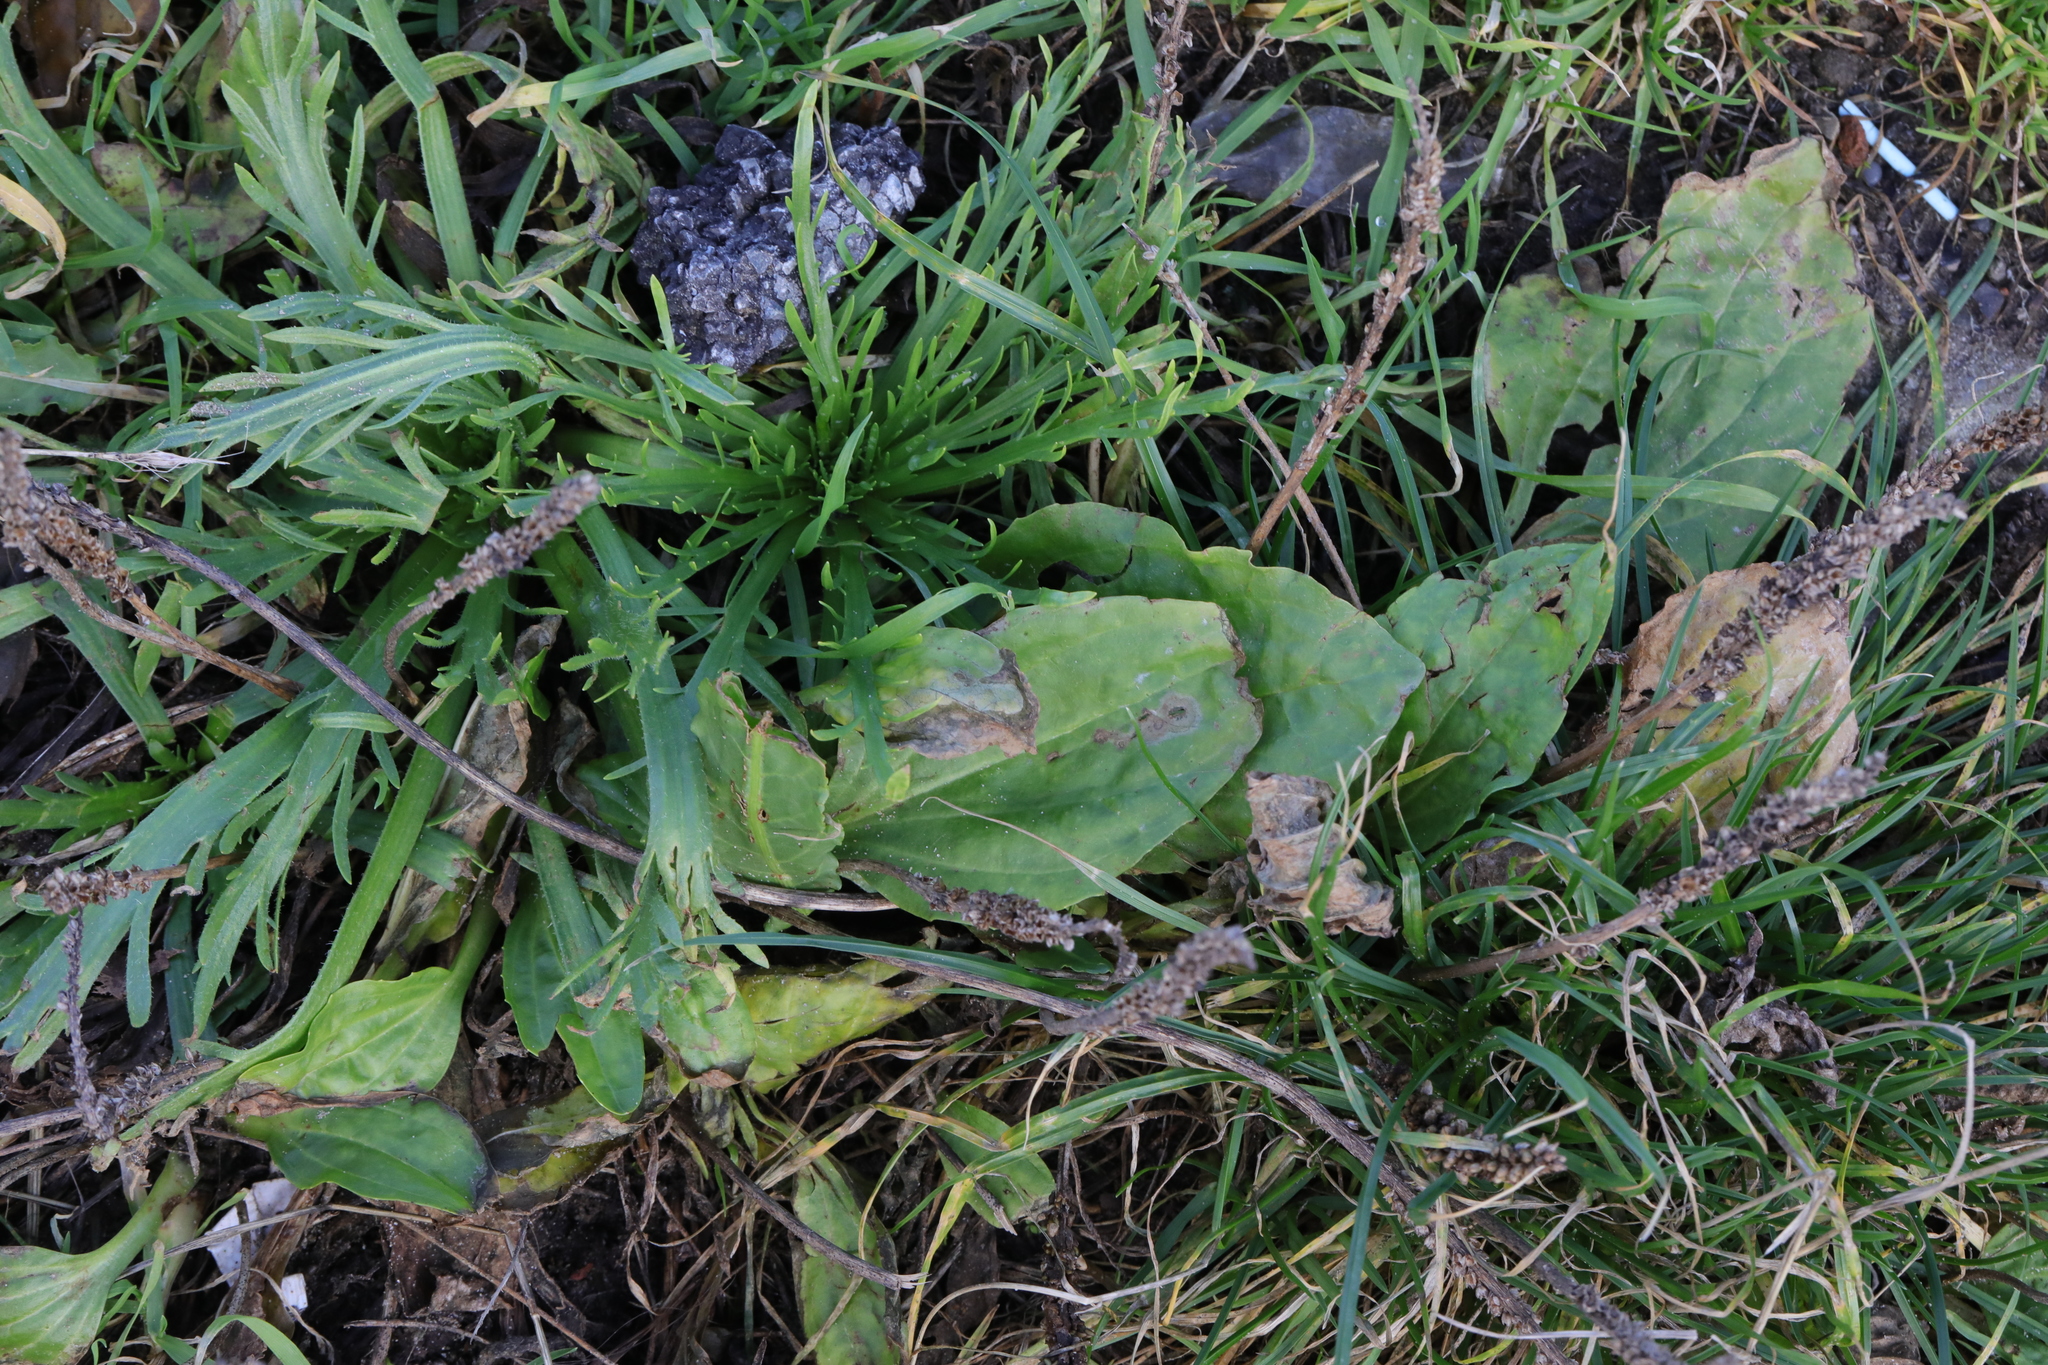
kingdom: Plantae
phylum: Tracheophyta
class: Magnoliopsida
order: Lamiales
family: Plantaginaceae
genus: Plantago
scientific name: Plantago major
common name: Common plantain
